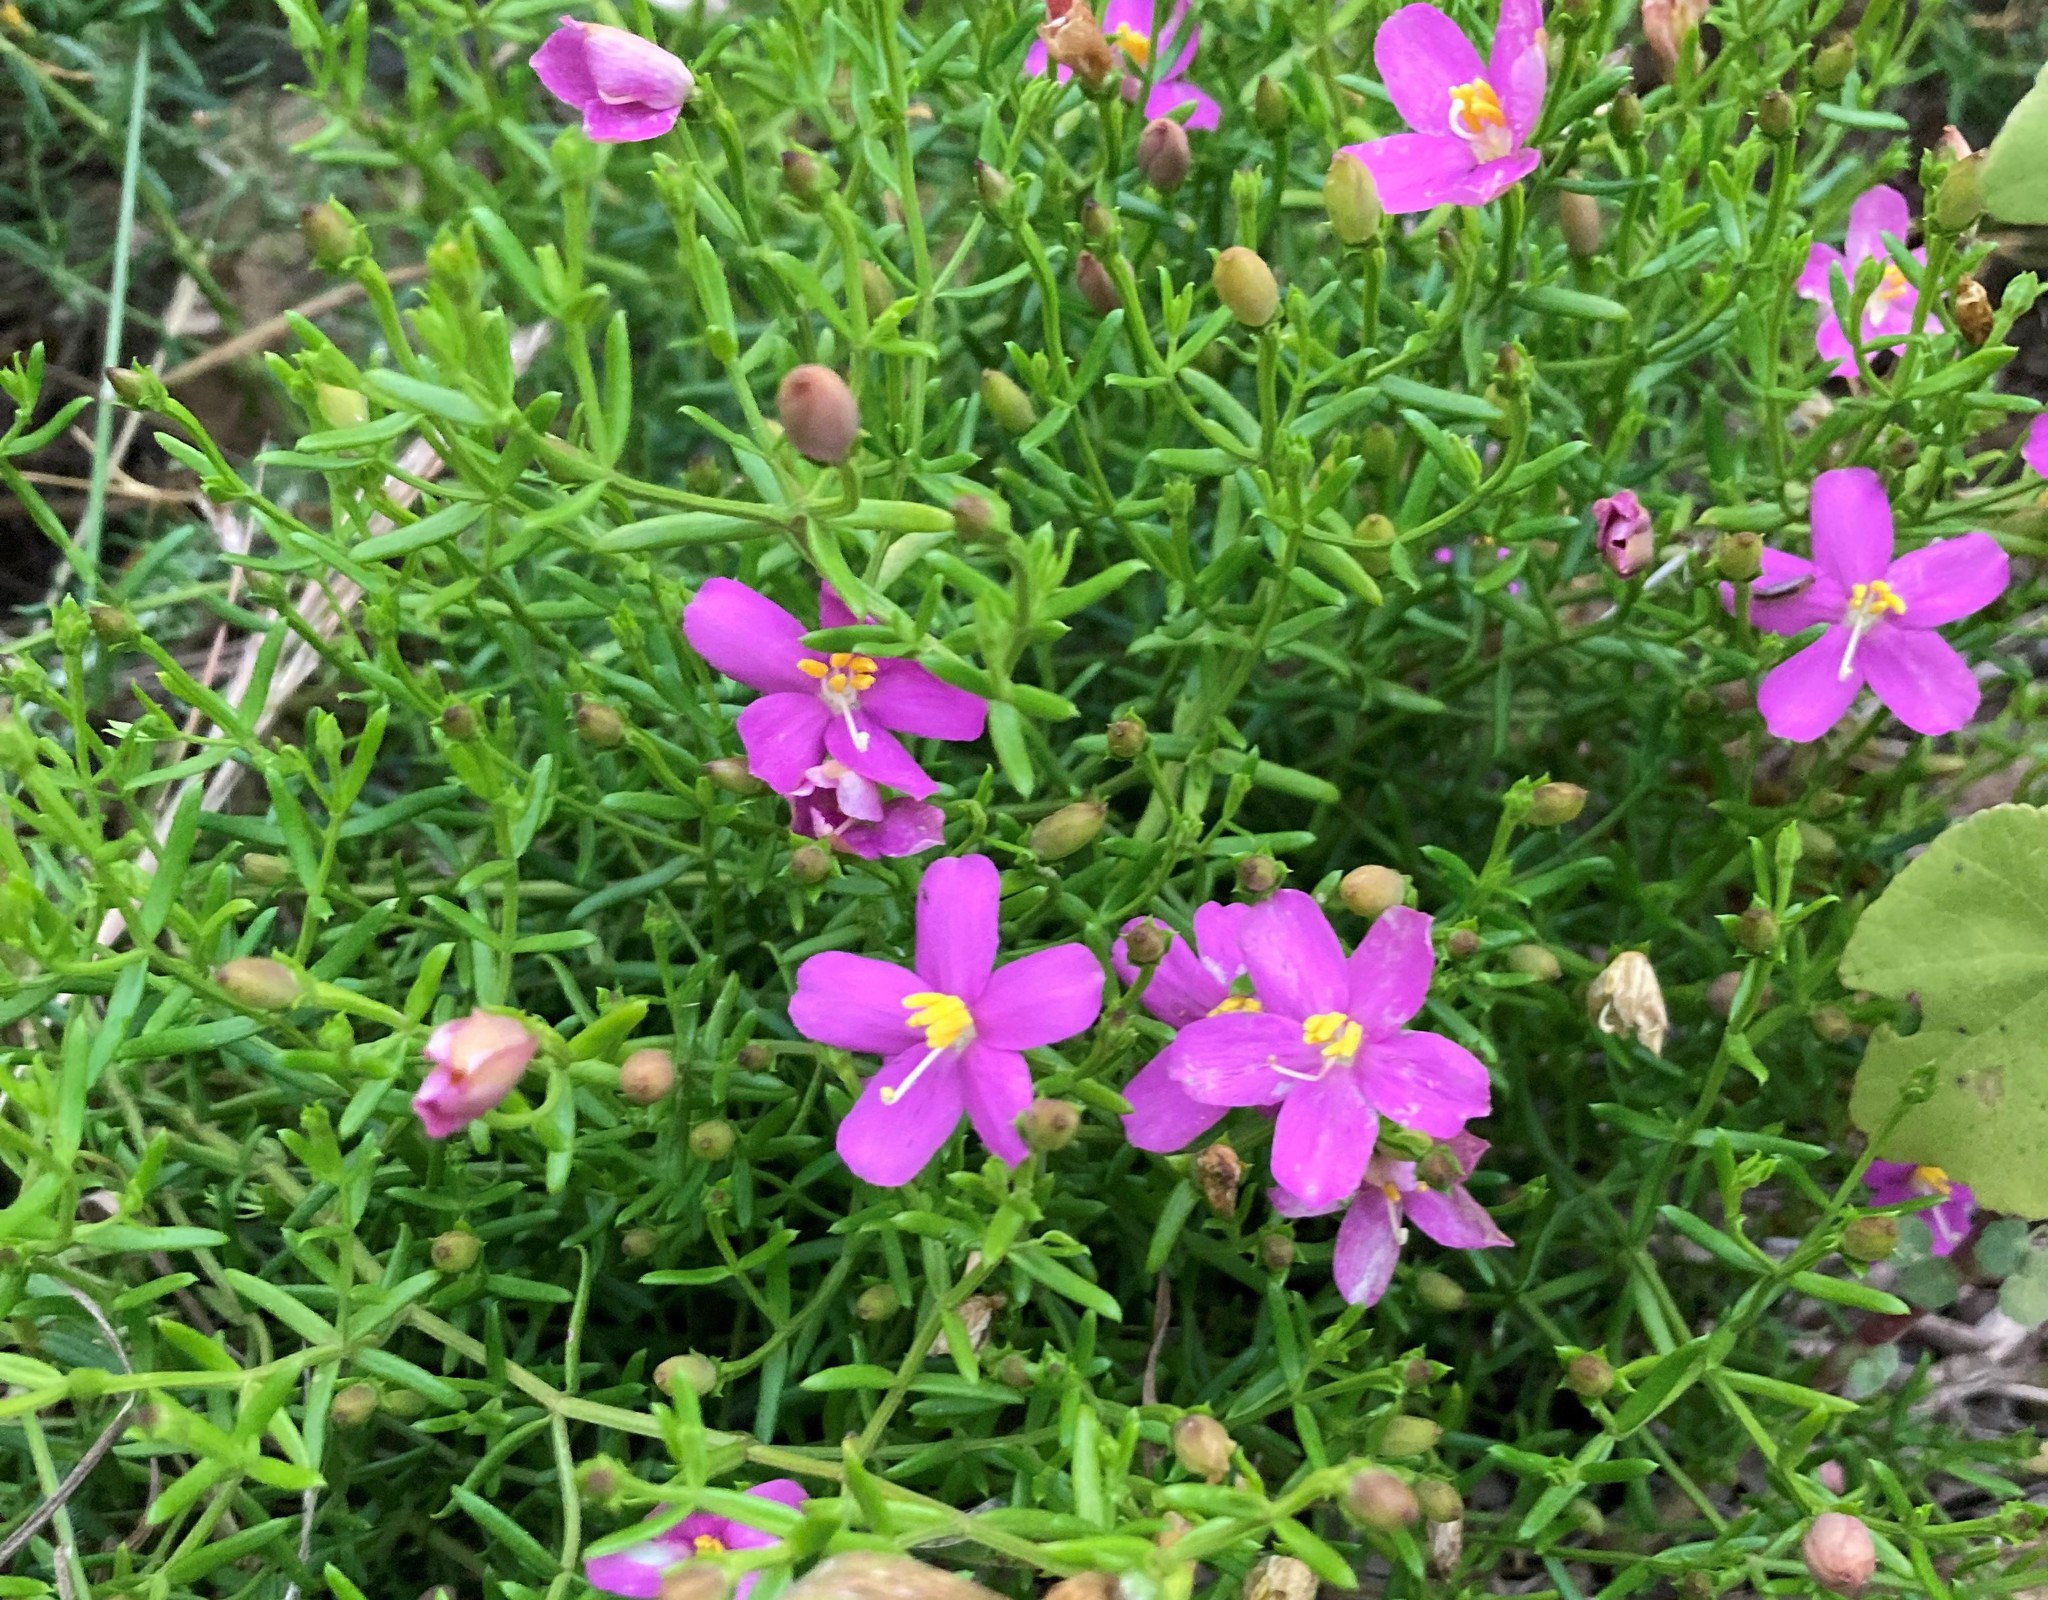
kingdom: Plantae
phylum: Tracheophyta
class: Magnoliopsida
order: Gentianales
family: Gentianaceae
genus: Chironia
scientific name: Chironia baccifera
